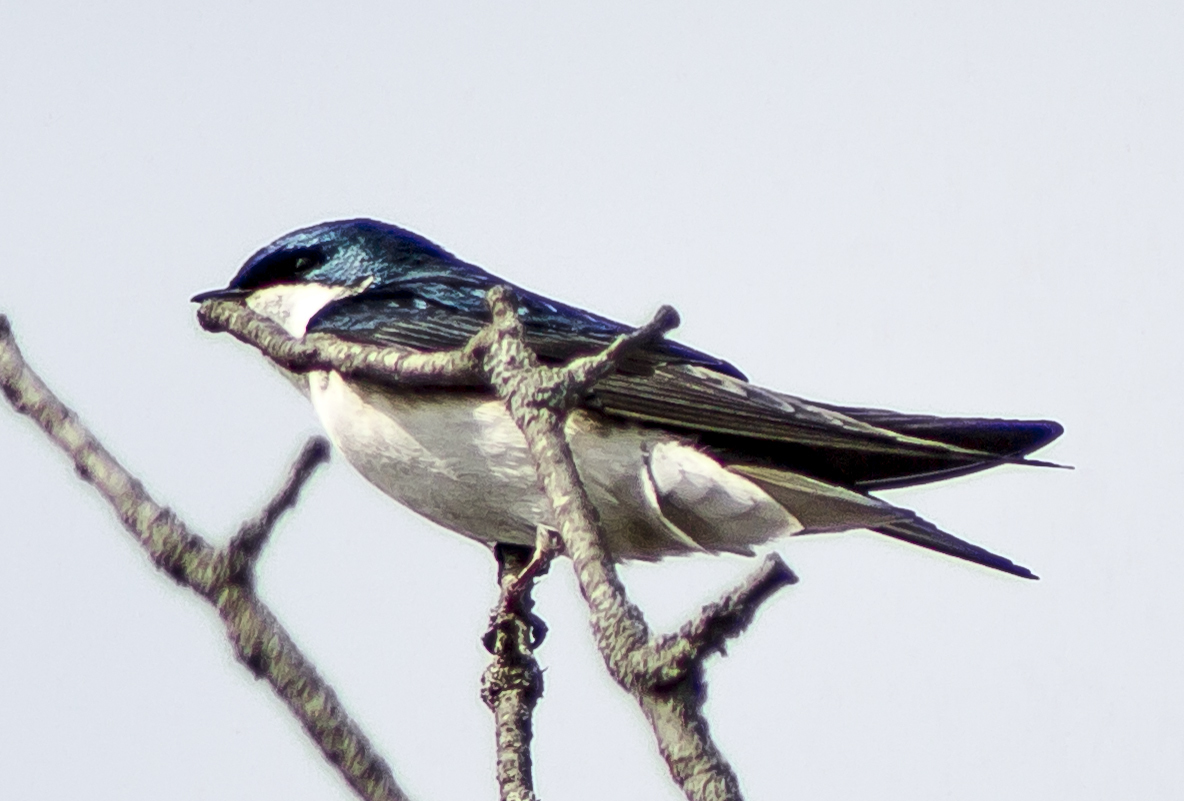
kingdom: Animalia
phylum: Chordata
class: Aves
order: Passeriformes
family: Hirundinidae
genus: Tachycineta
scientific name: Tachycineta bicolor
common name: Tree swallow
